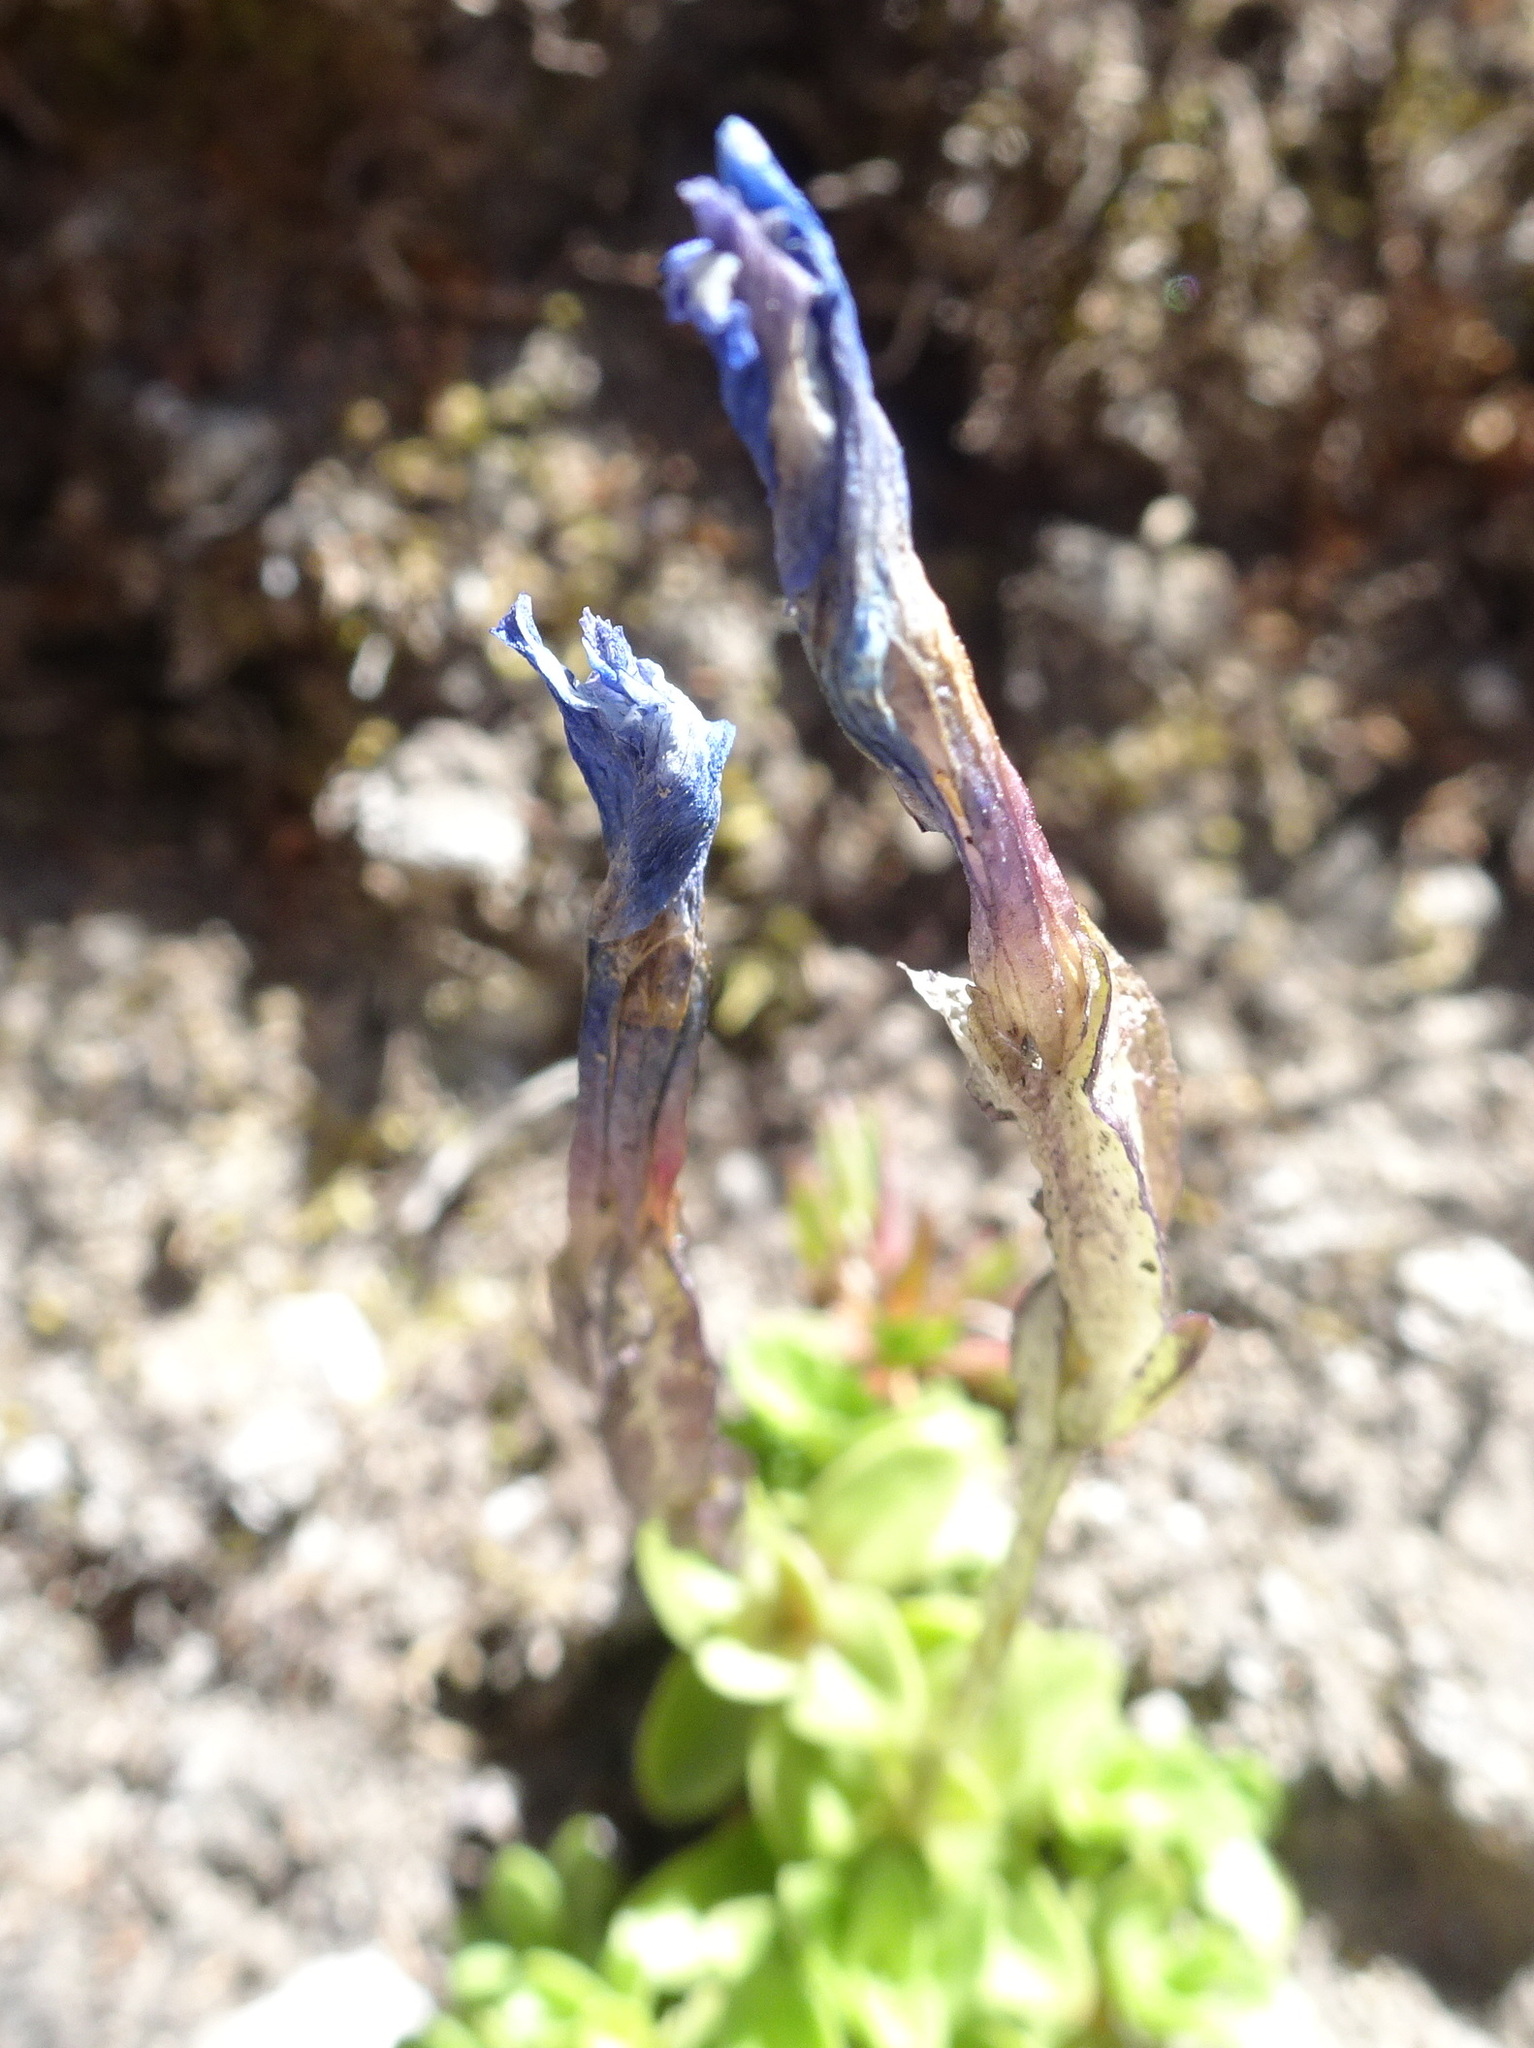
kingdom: Plantae
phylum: Tracheophyta
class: Magnoliopsida
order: Gentianales
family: Gentianaceae
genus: Gentiana
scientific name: Gentiana orbicularis
